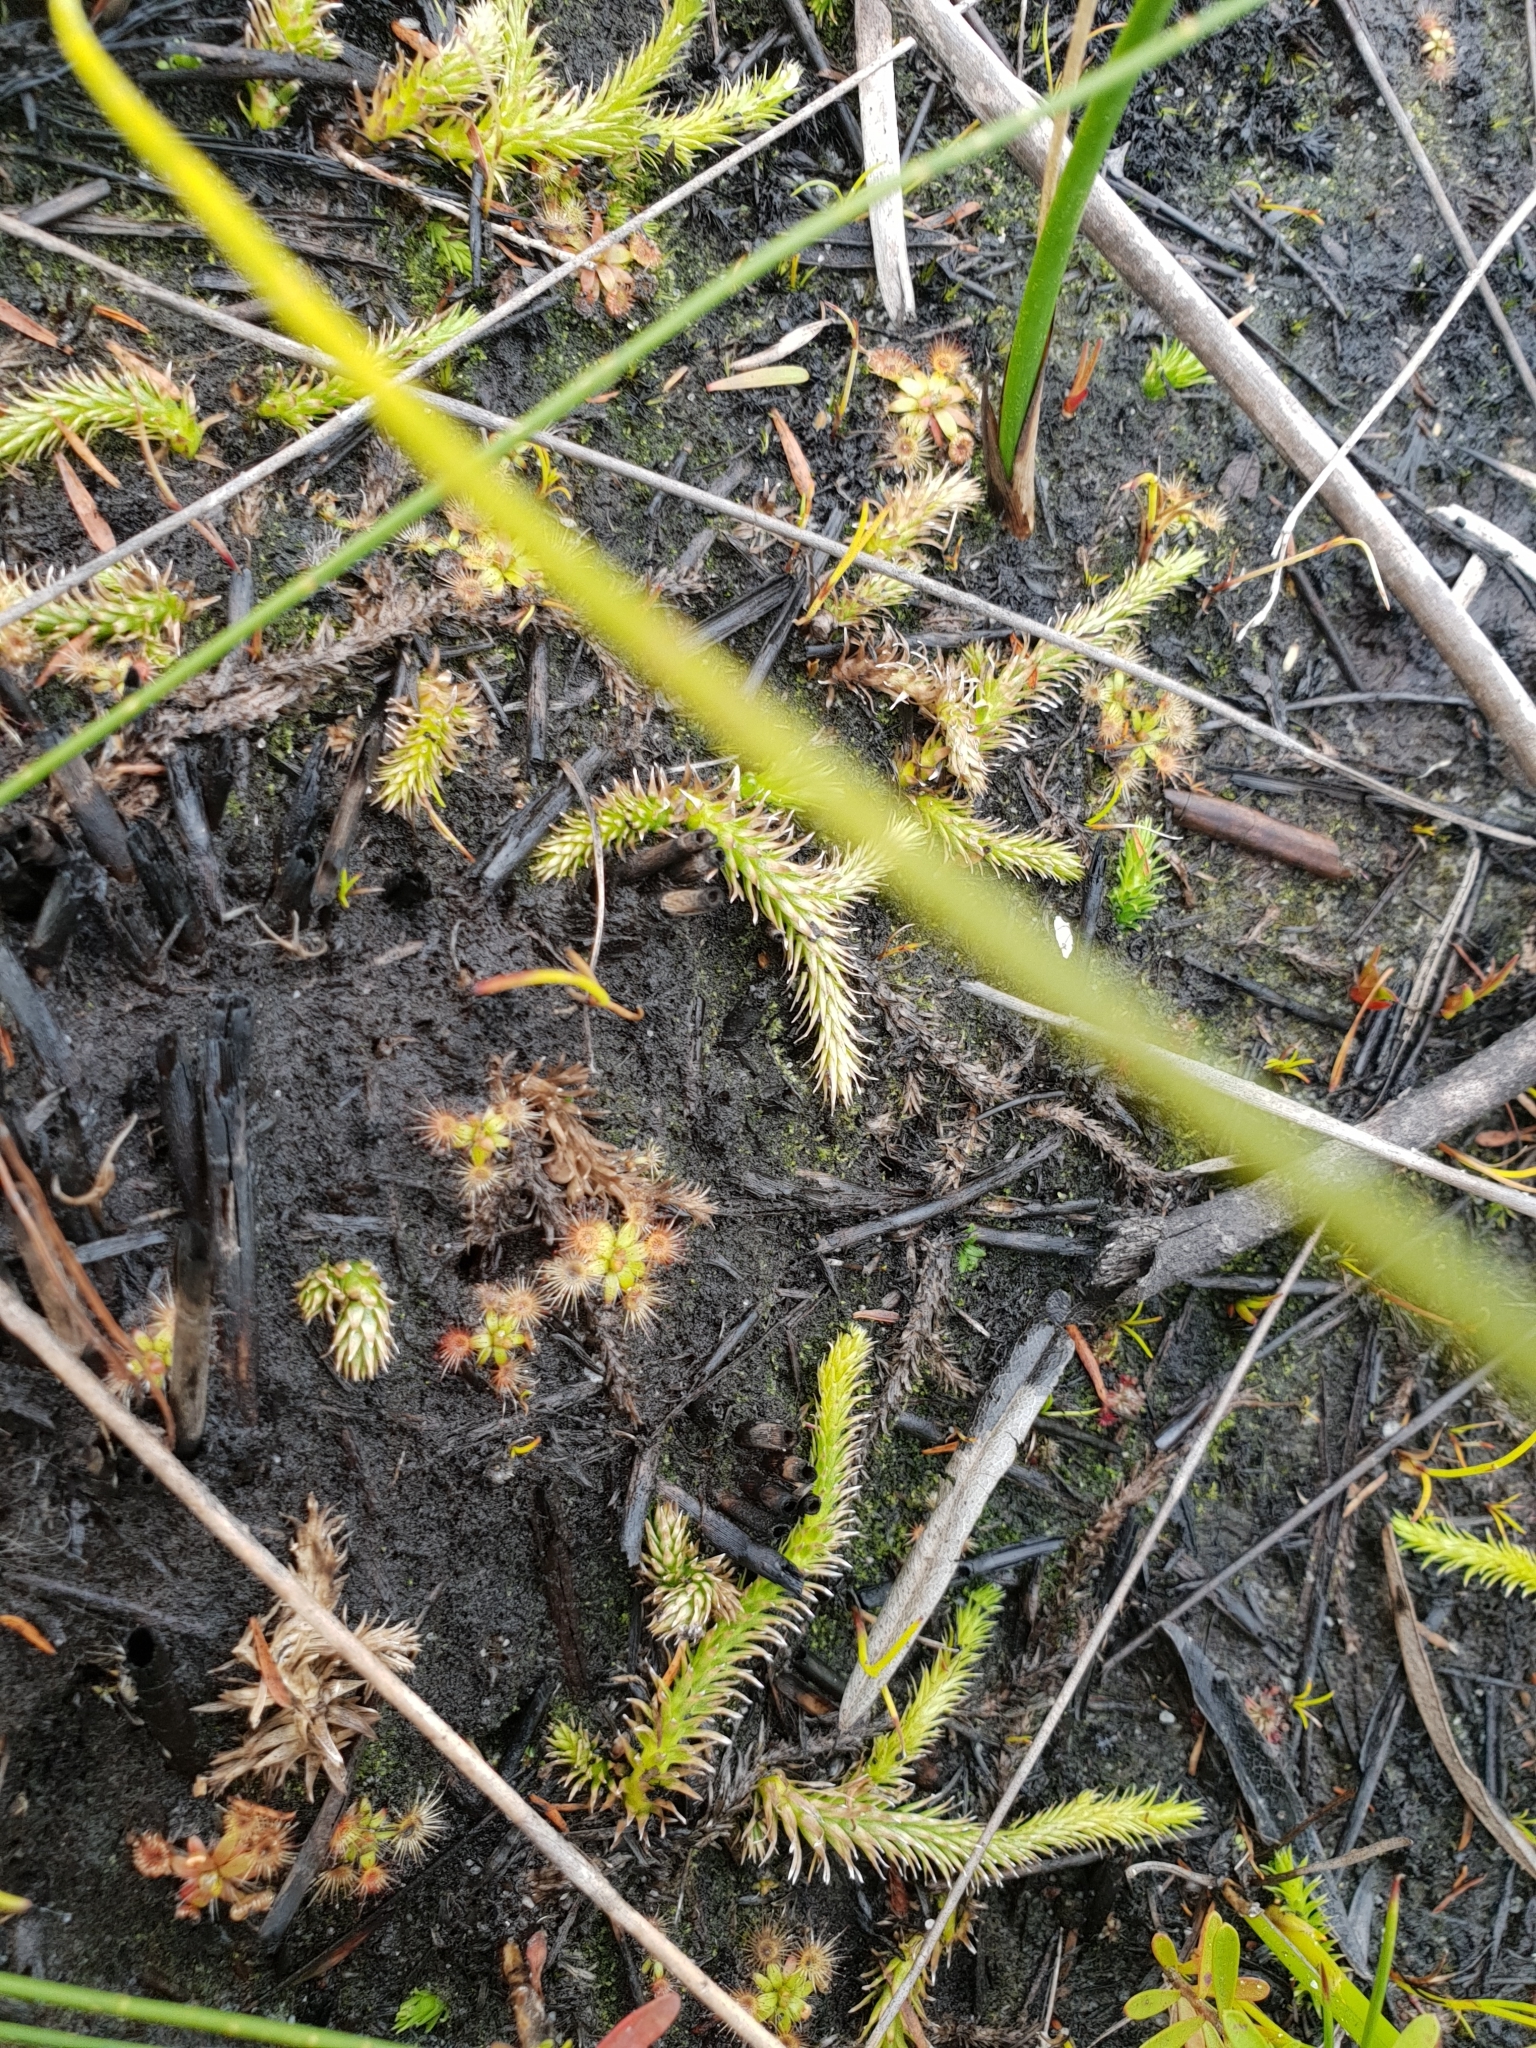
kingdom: Plantae
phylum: Tracheophyta
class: Lycopodiopsida
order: Lycopodiales
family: Lycopodiaceae
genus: Brownseya
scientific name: Brownseya serpentina
